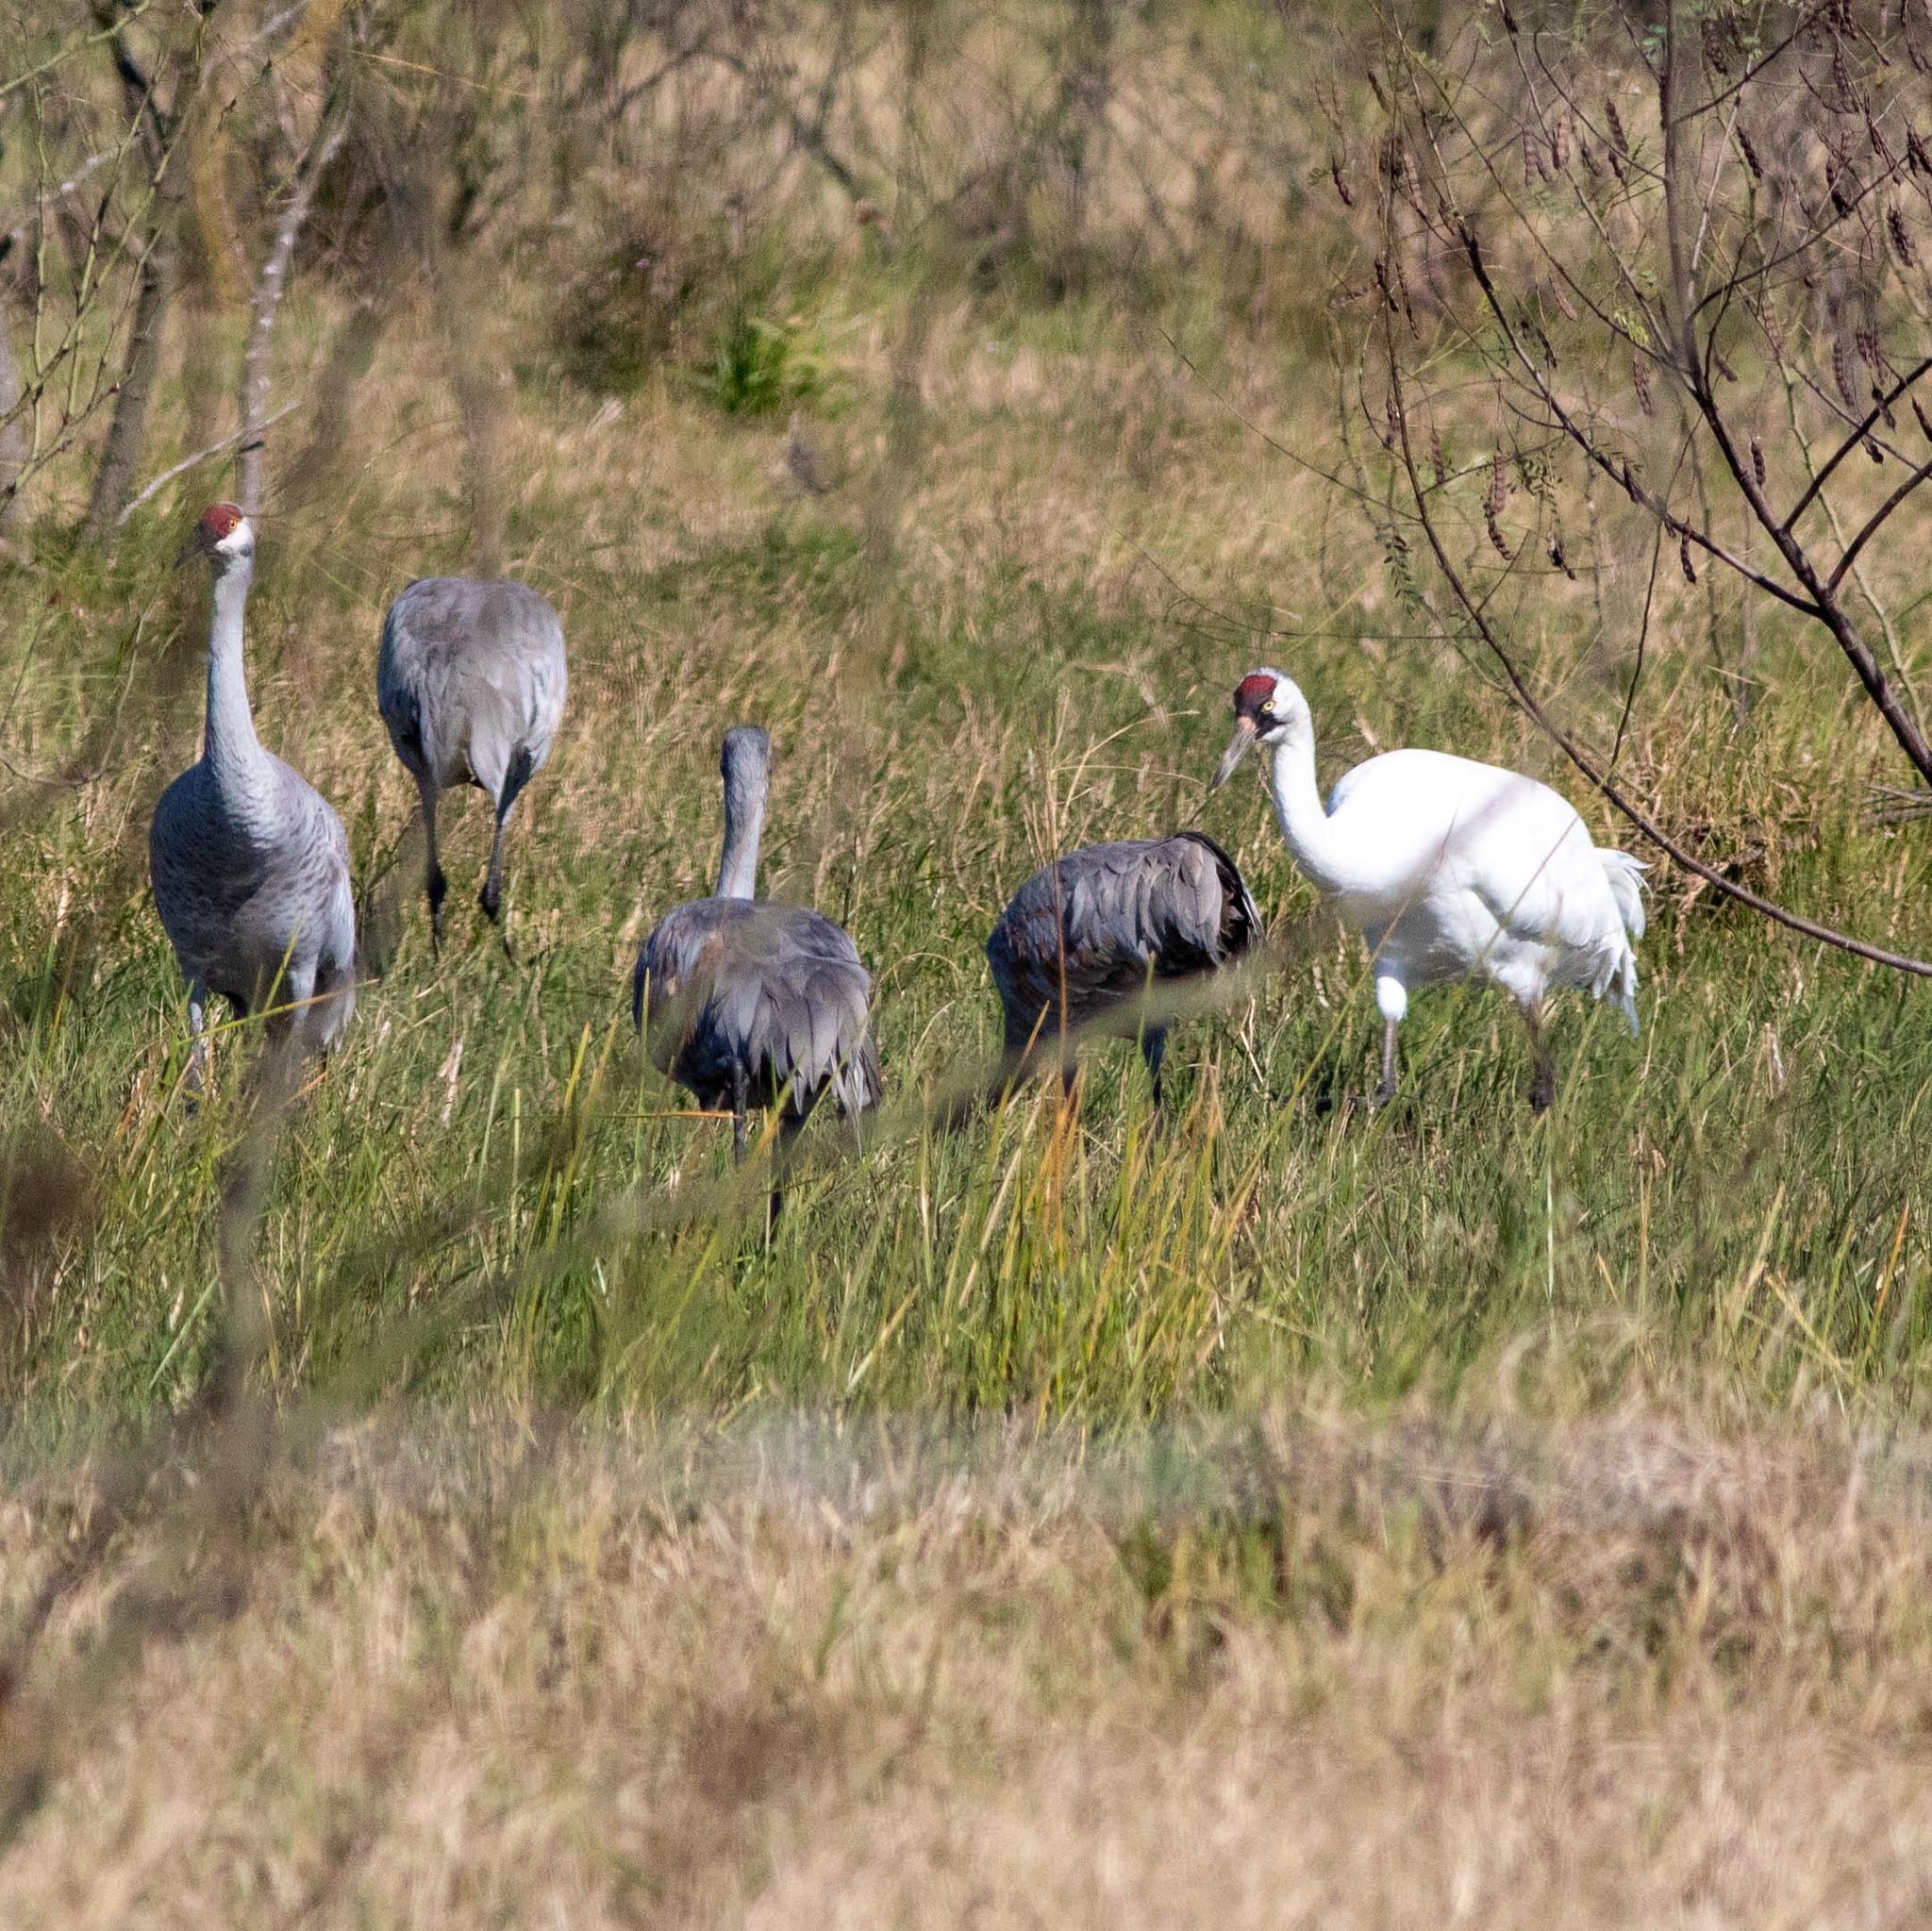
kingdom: Animalia
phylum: Chordata
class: Aves
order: Gruiformes
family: Gruidae
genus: Grus
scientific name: Grus americana
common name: Whooping crane
